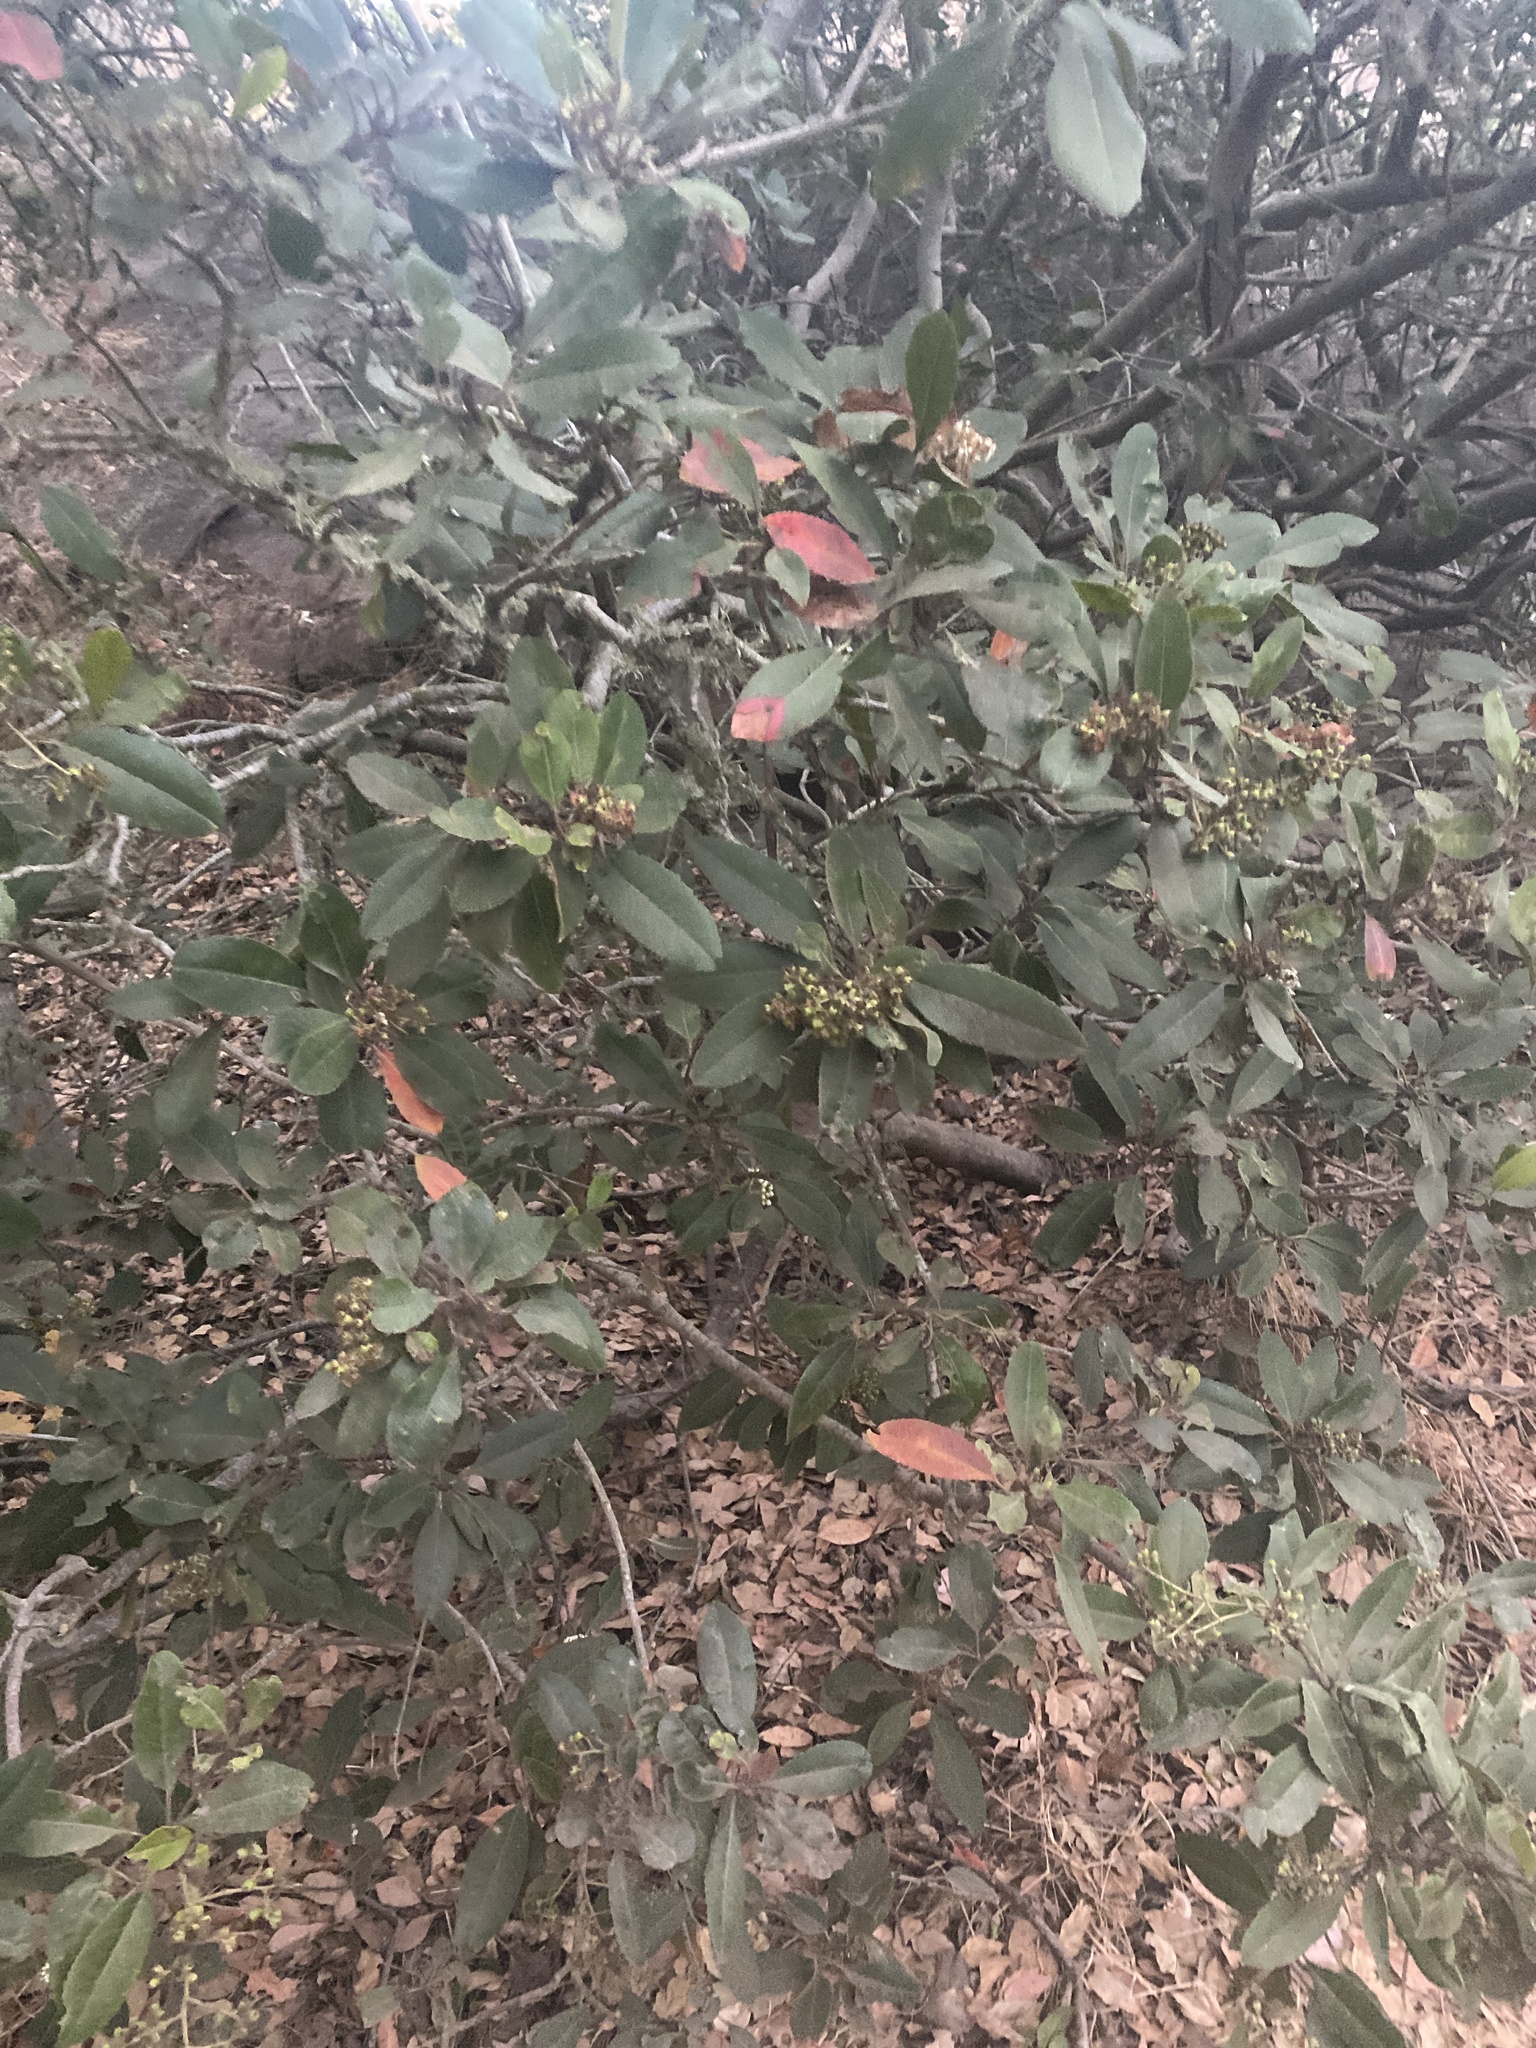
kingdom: Plantae
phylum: Tracheophyta
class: Magnoliopsida
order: Rosales
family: Rosaceae
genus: Heteromeles
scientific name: Heteromeles arbutifolia
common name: California-holly
